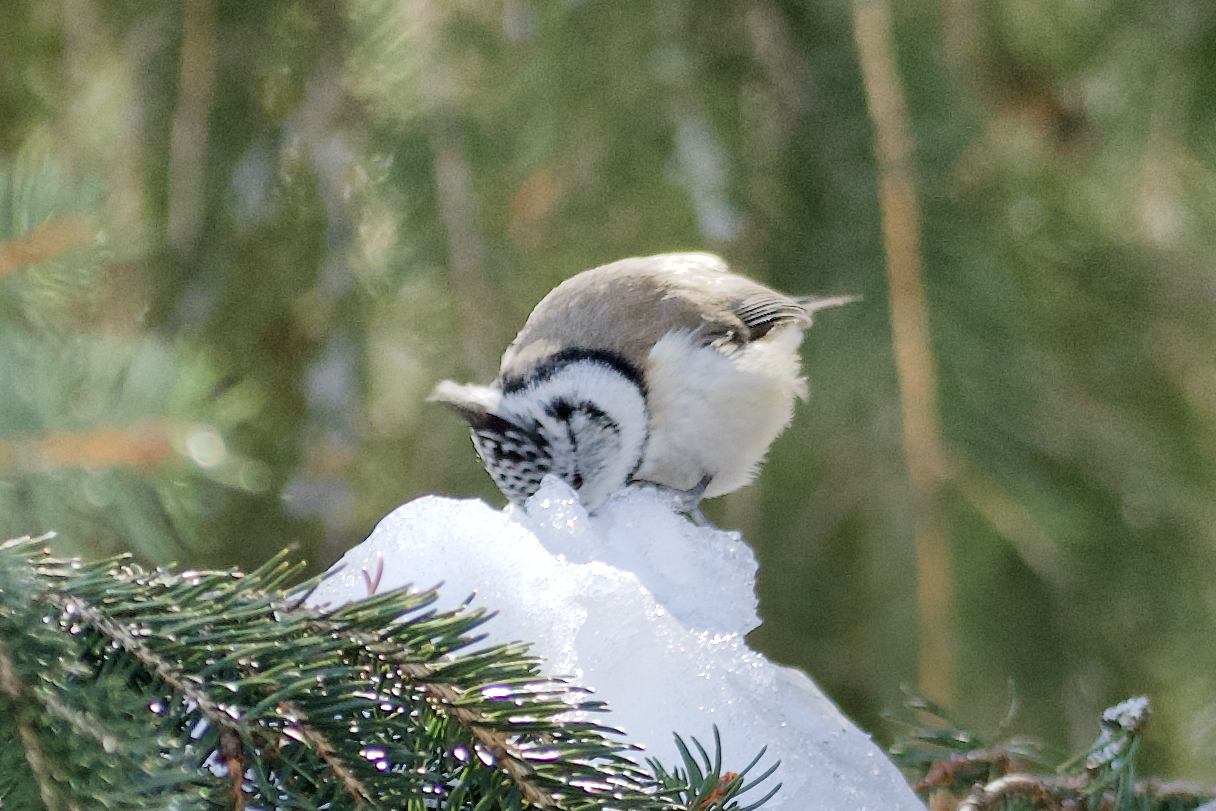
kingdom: Animalia
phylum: Chordata
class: Aves
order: Passeriformes
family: Paridae
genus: Lophophanes
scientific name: Lophophanes cristatus
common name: European crested tit
